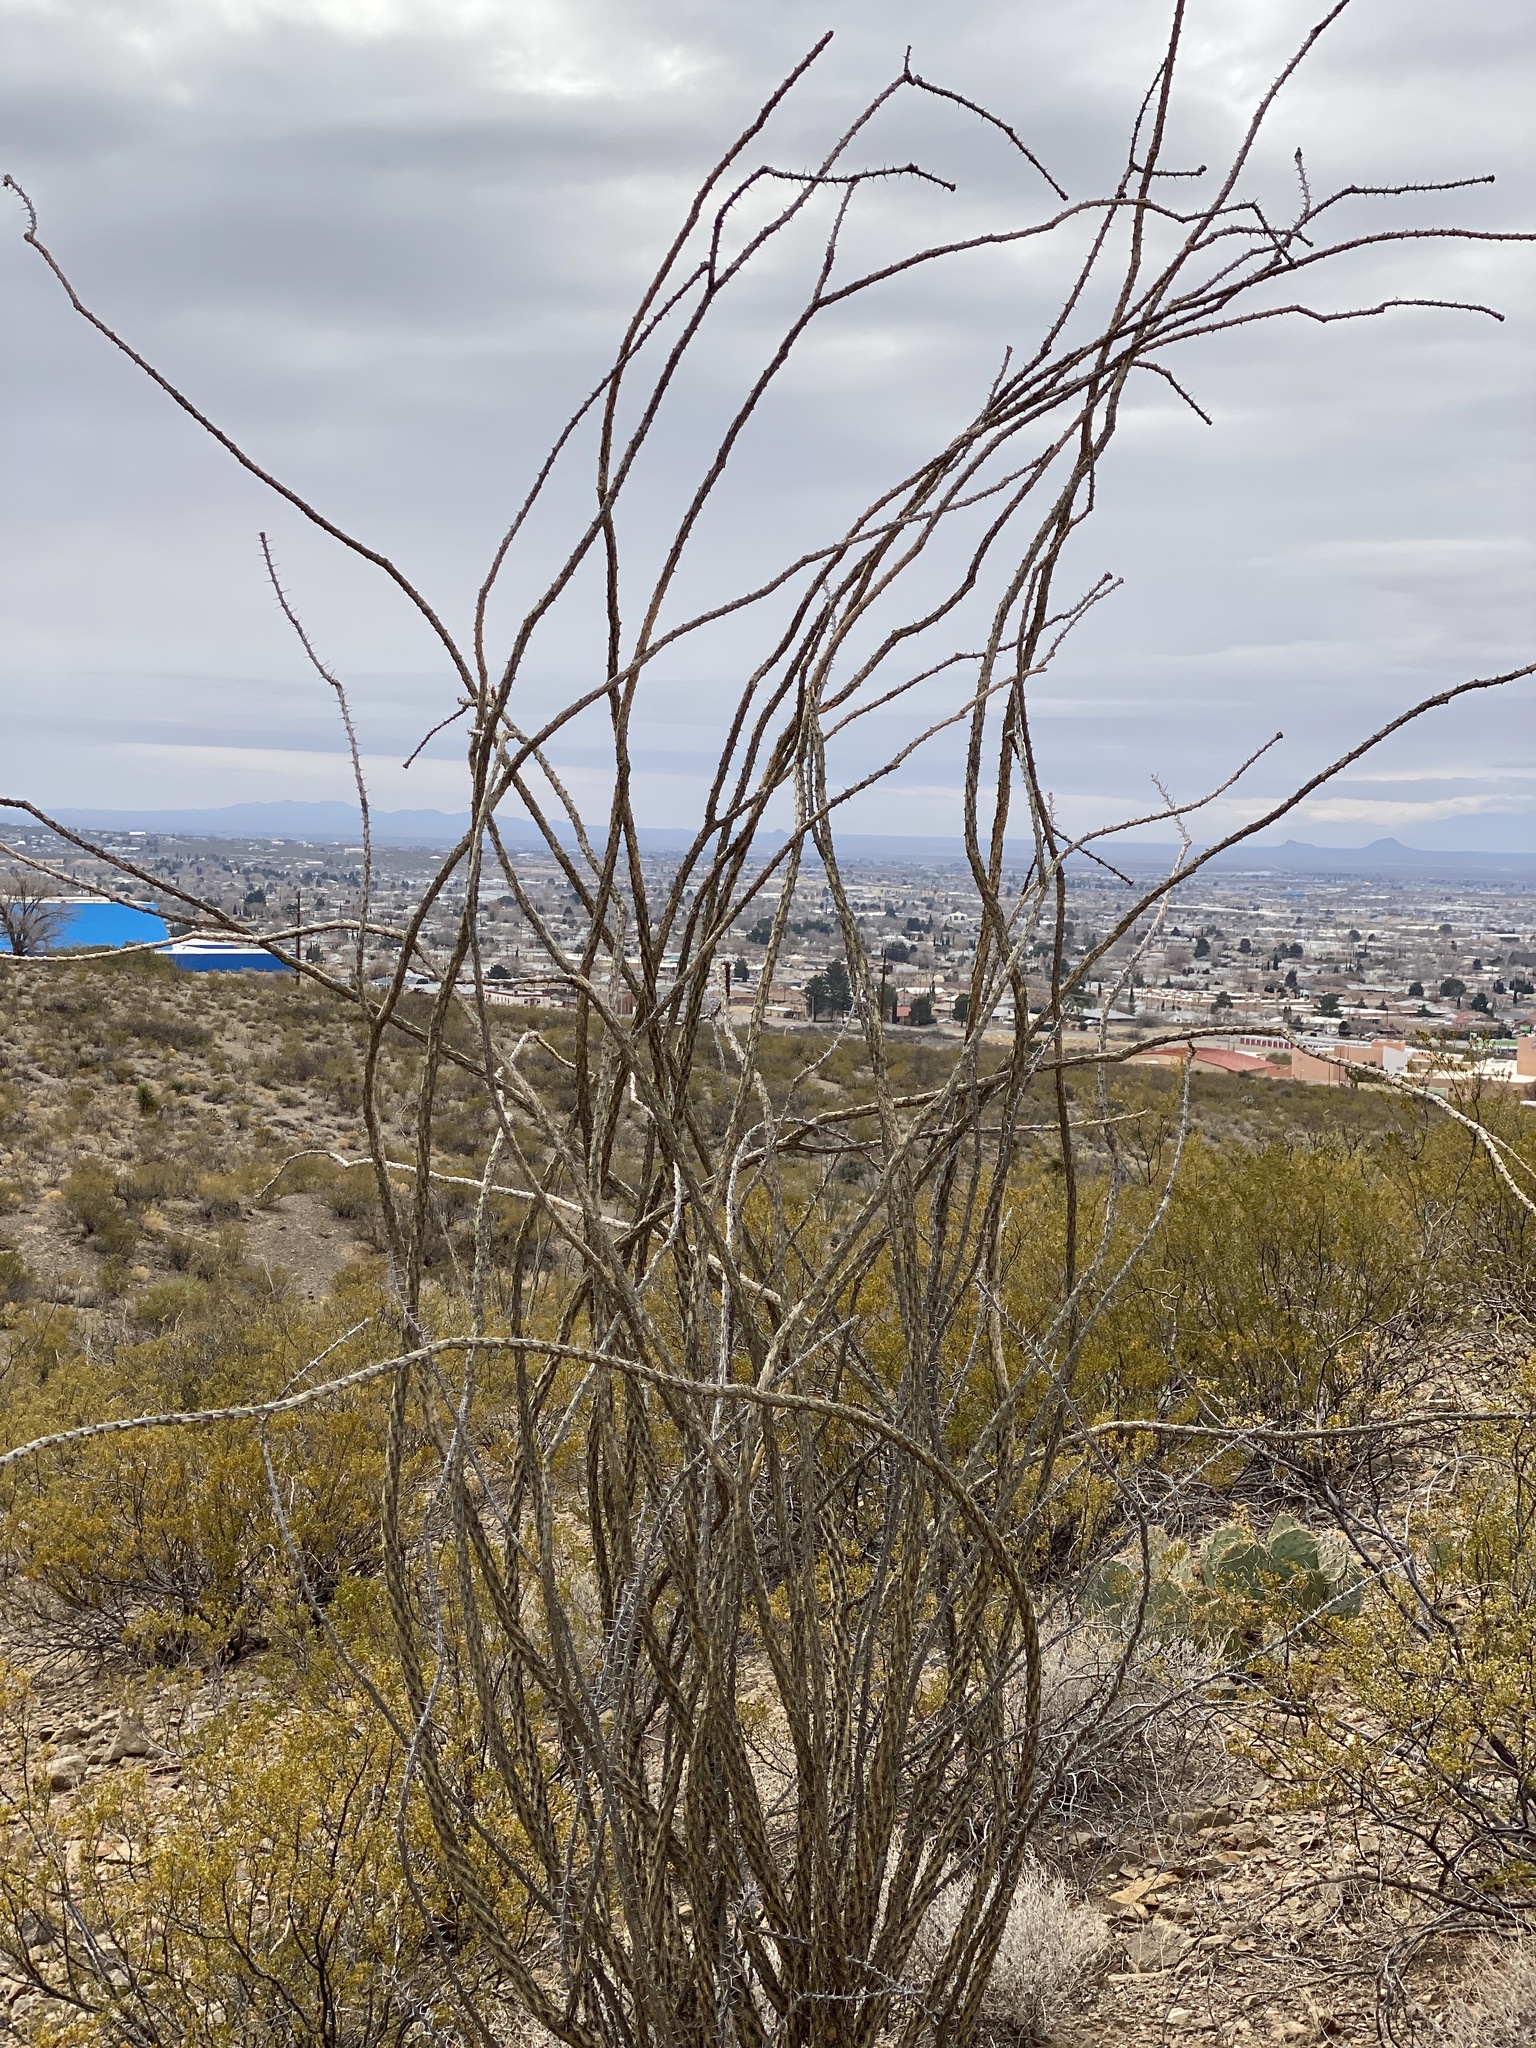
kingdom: Plantae
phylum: Tracheophyta
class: Magnoliopsida
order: Ericales
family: Fouquieriaceae
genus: Fouquieria
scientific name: Fouquieria splendens
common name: Vine-cactus
